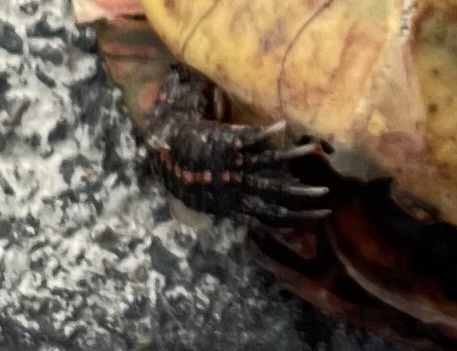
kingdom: Animalia
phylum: Chordata
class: Testudines
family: Emydidae
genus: Chrysemys
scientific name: Chrysemys picta
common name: Painted turtle
